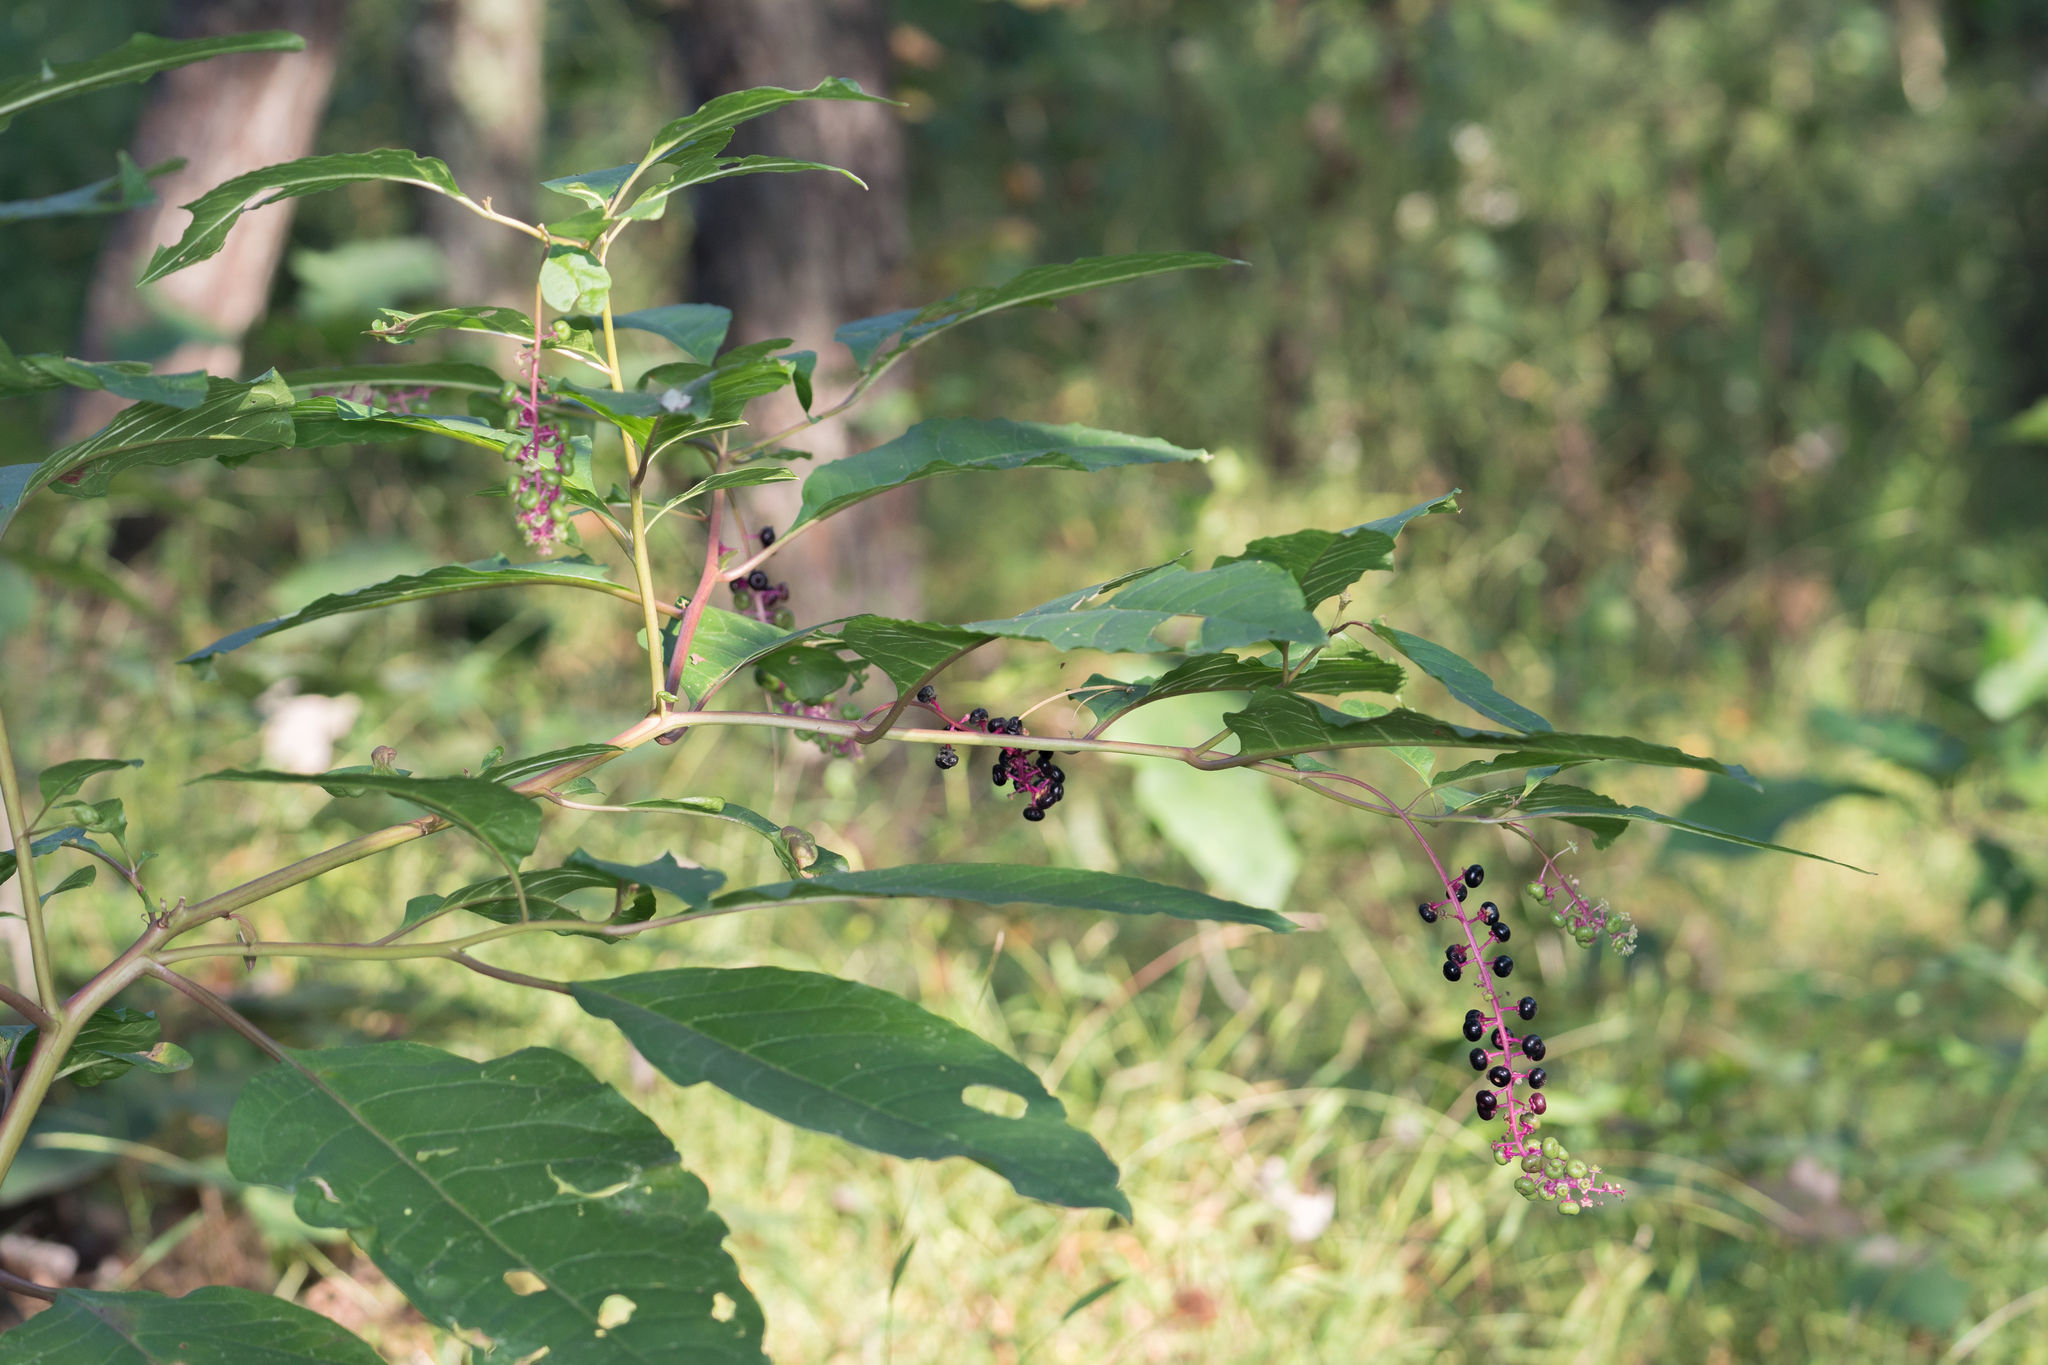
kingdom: Plantae
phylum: Tracheophyta
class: Magnoliopsida
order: Caryophyllales
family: Phytolaccaceae
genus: Phytolacca
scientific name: Phytolacca americana
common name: American pokeweed
